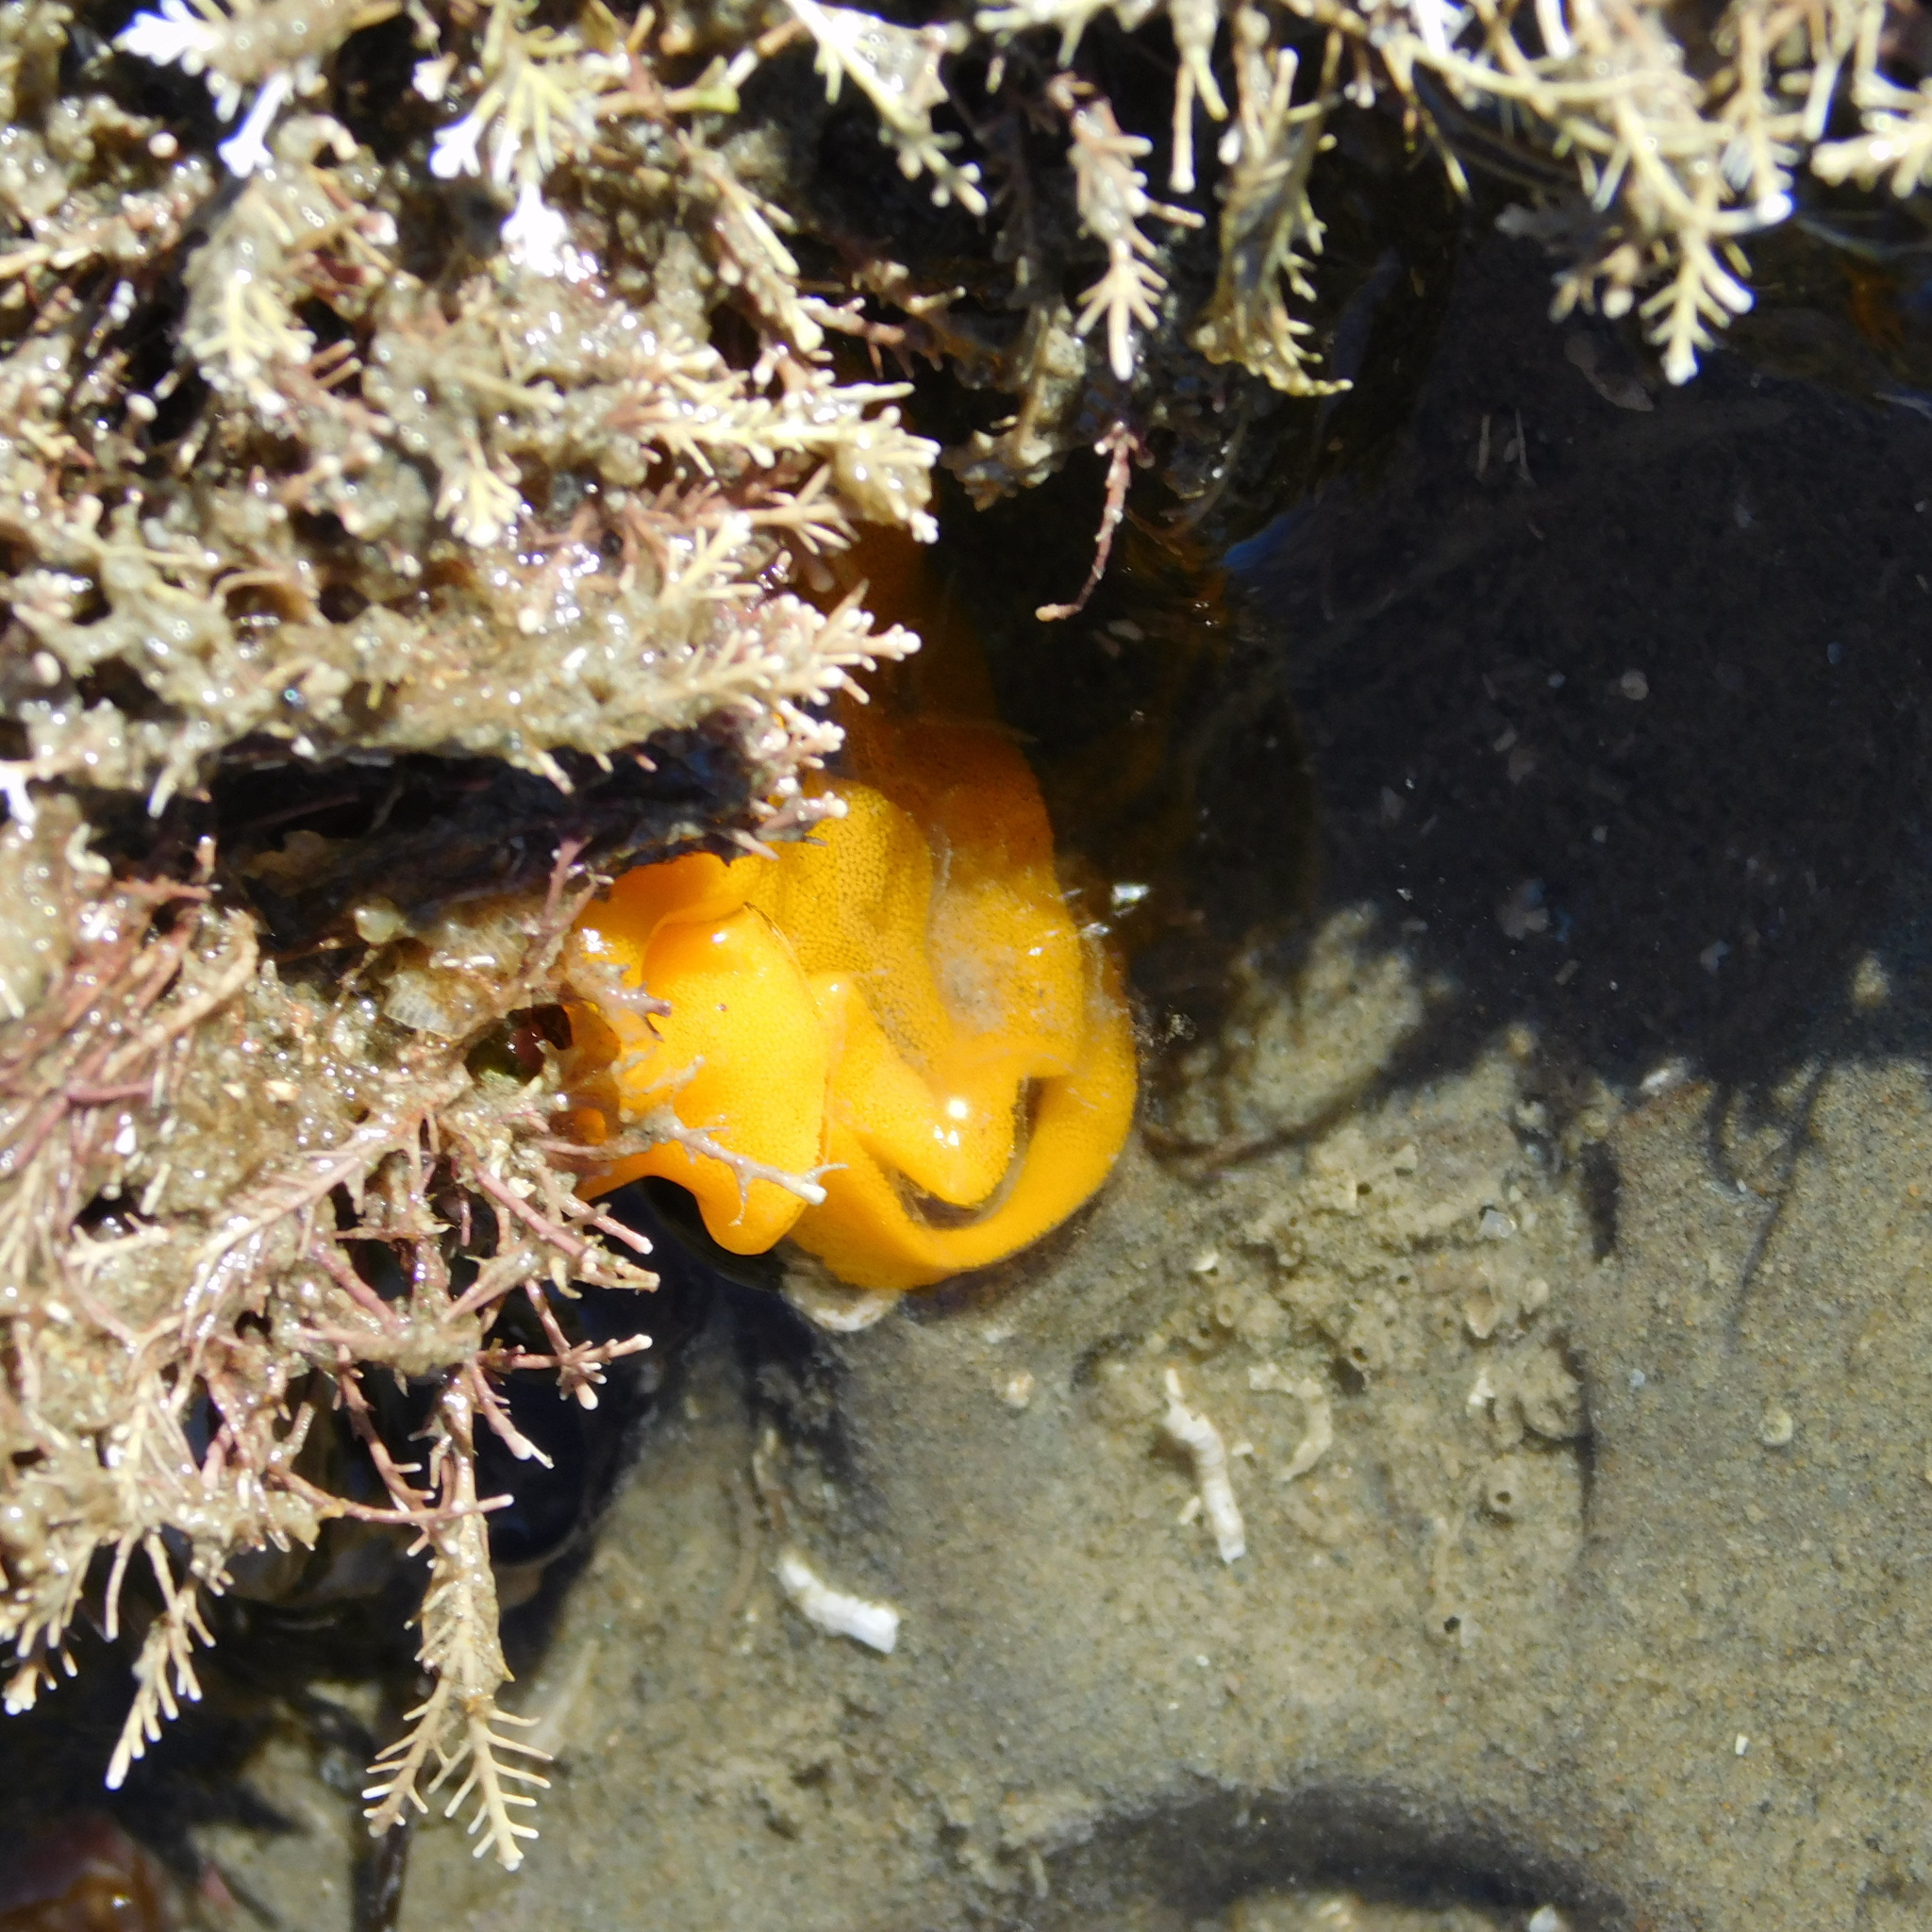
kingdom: Animalia
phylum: Mollusca
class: Gastropoda
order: Nudibranchia
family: Dendrodorididae
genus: Dendrodoris
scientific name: Dendrodoris citrina
